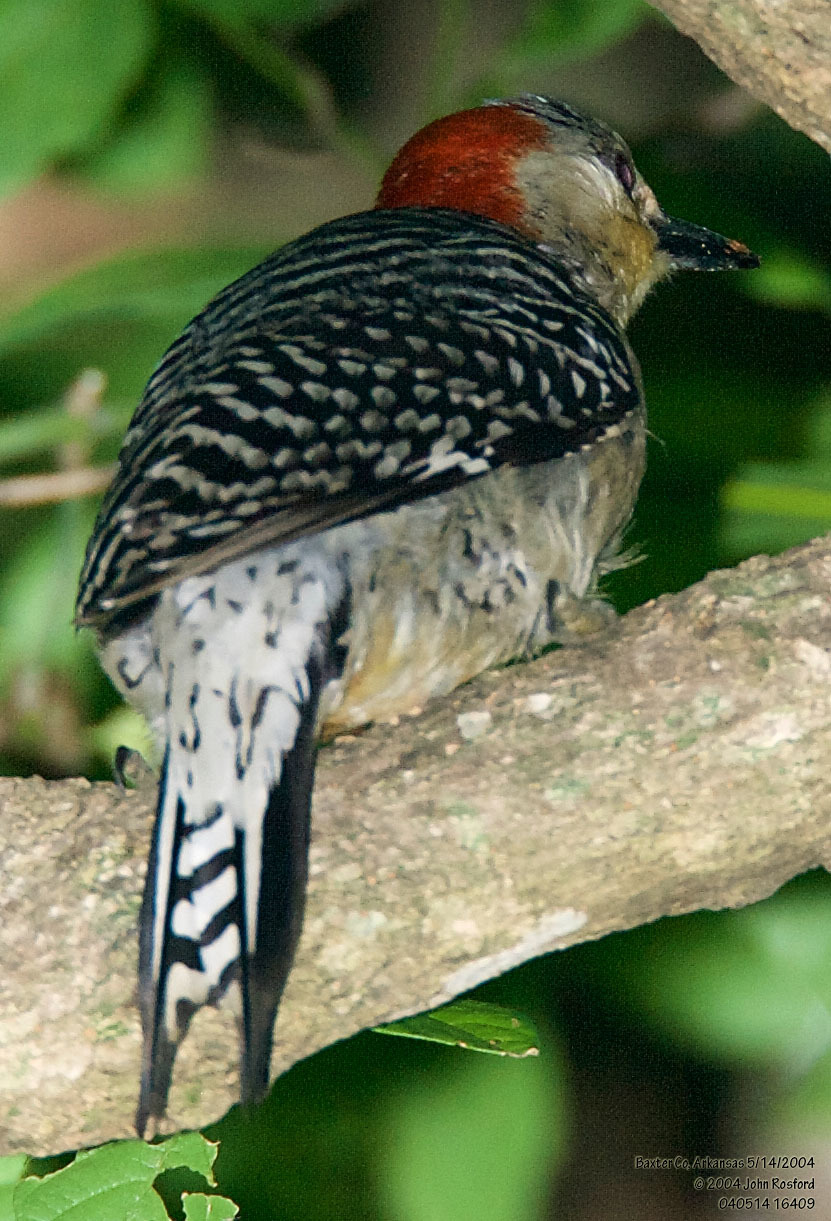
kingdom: Animalia
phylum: Chordata
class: Aves
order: Piciformes
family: Picidae
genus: Melanerpes
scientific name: Melanerpes carolinus
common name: Red-bellied woodpecker
